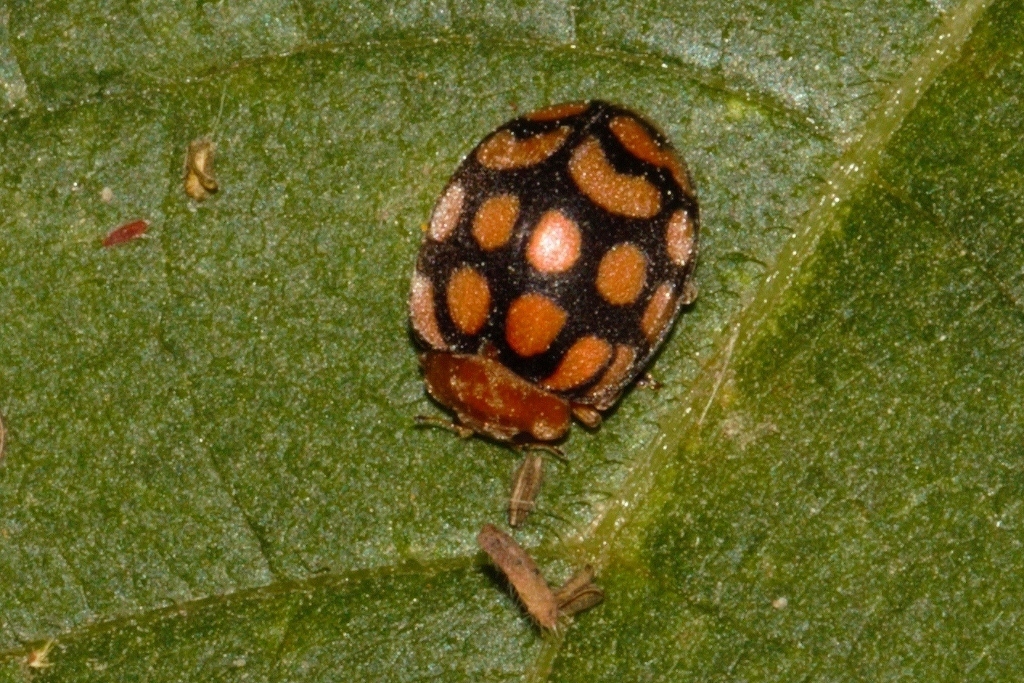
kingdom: Animalia
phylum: Arthropoda
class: Insecta
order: Coleoptera
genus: Solanophila
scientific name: Solanophila
